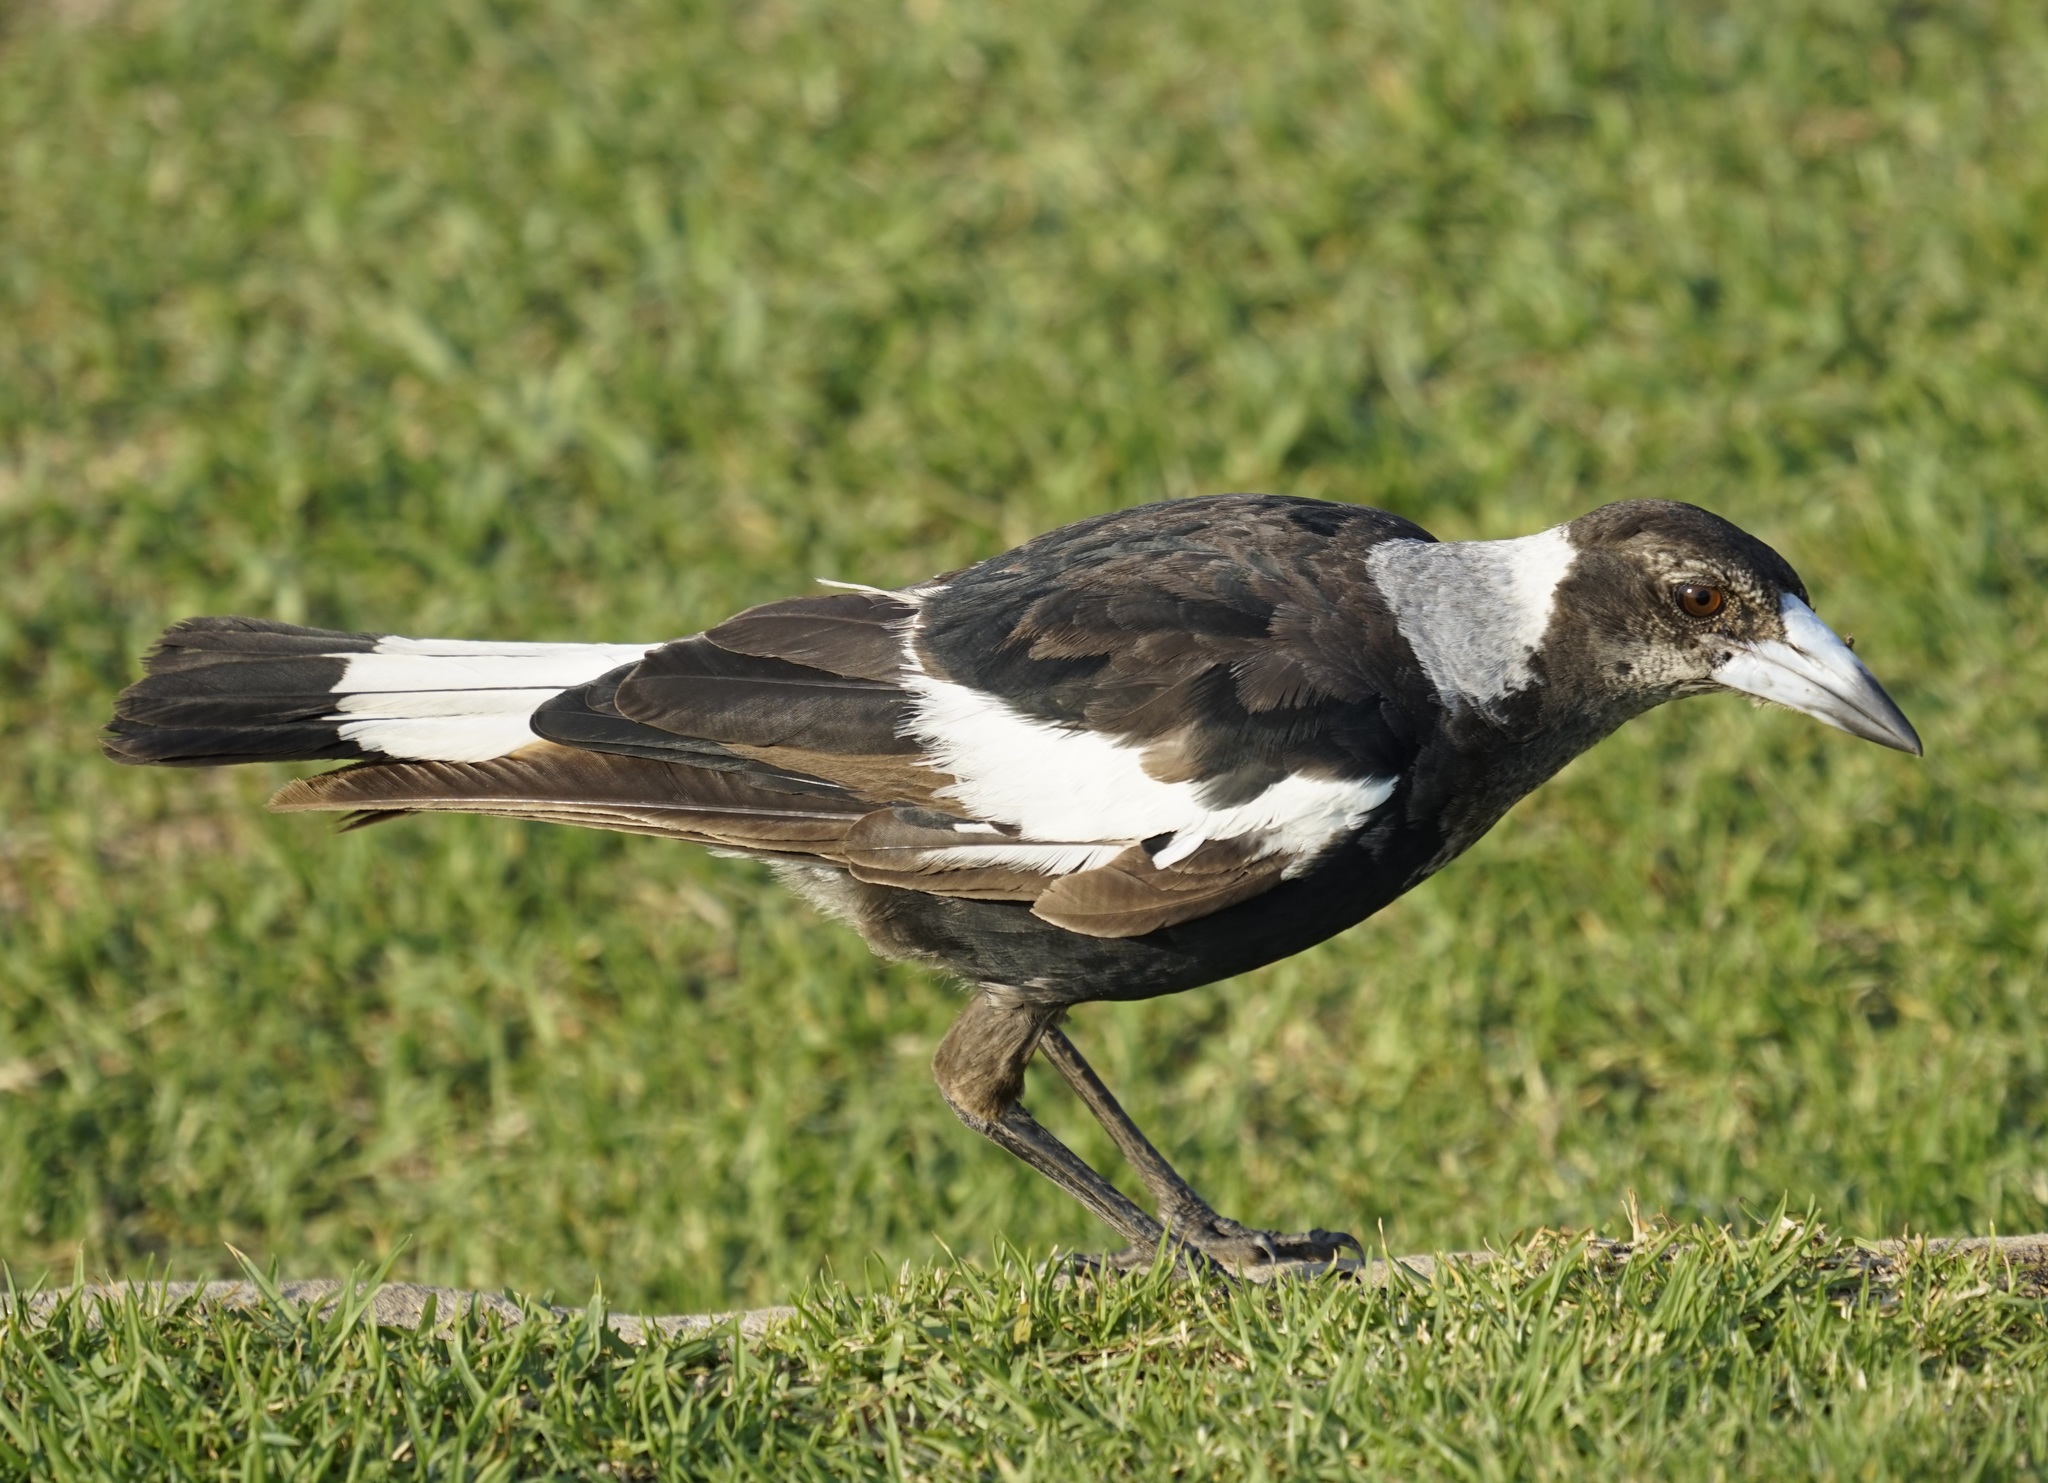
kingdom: Animalia
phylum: Chordata
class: Aves
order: Passeriformes
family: Cracticidae
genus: Gymnorhina
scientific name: Gymnorhina tibicen
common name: Australian magpie
